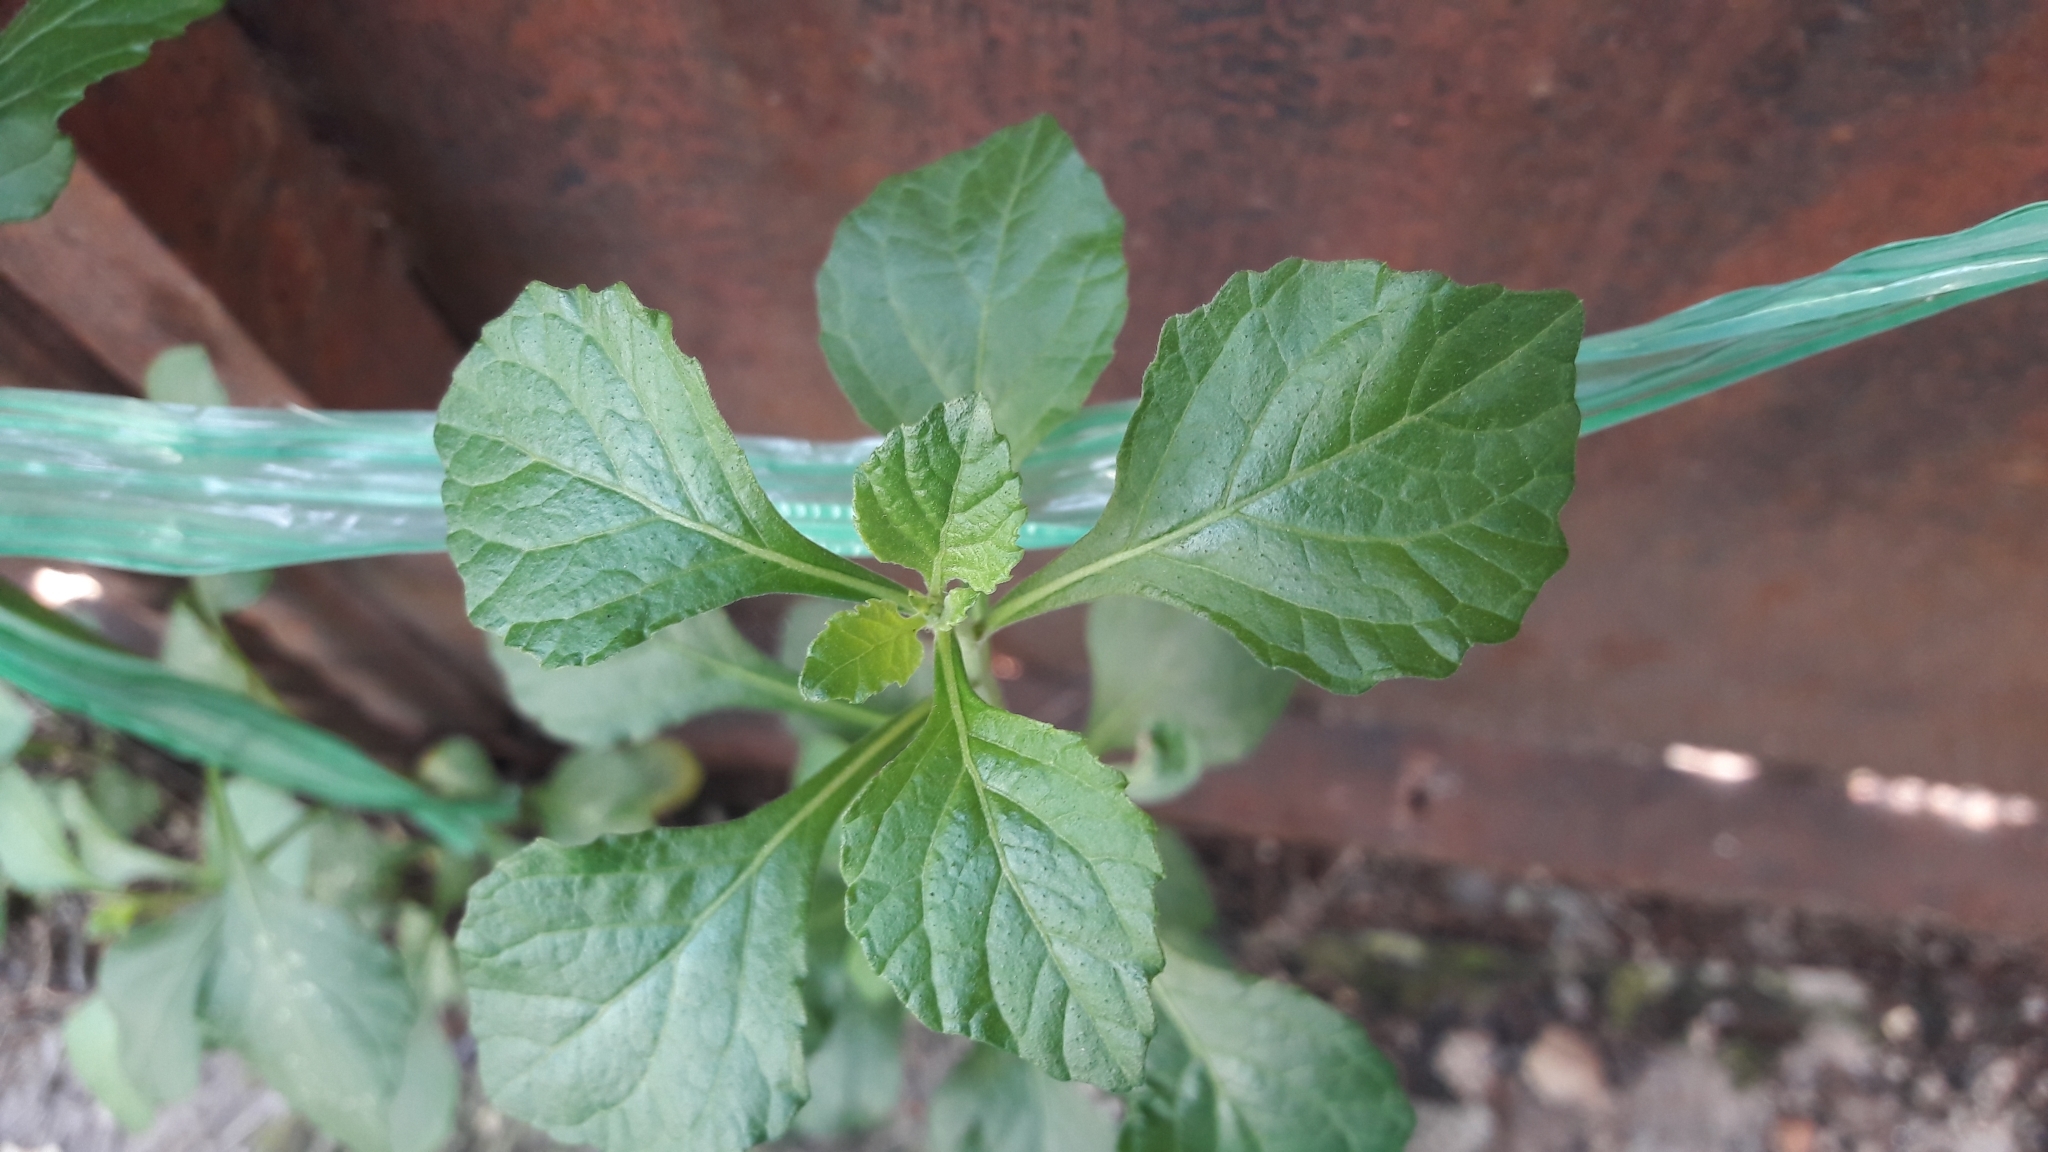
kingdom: Plantae
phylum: Tracheophyta
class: Magnoliopsida
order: Asterales
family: Asteraceae
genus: Cyanthillium
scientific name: Cyanthillium cinereum
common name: Little ironweed
